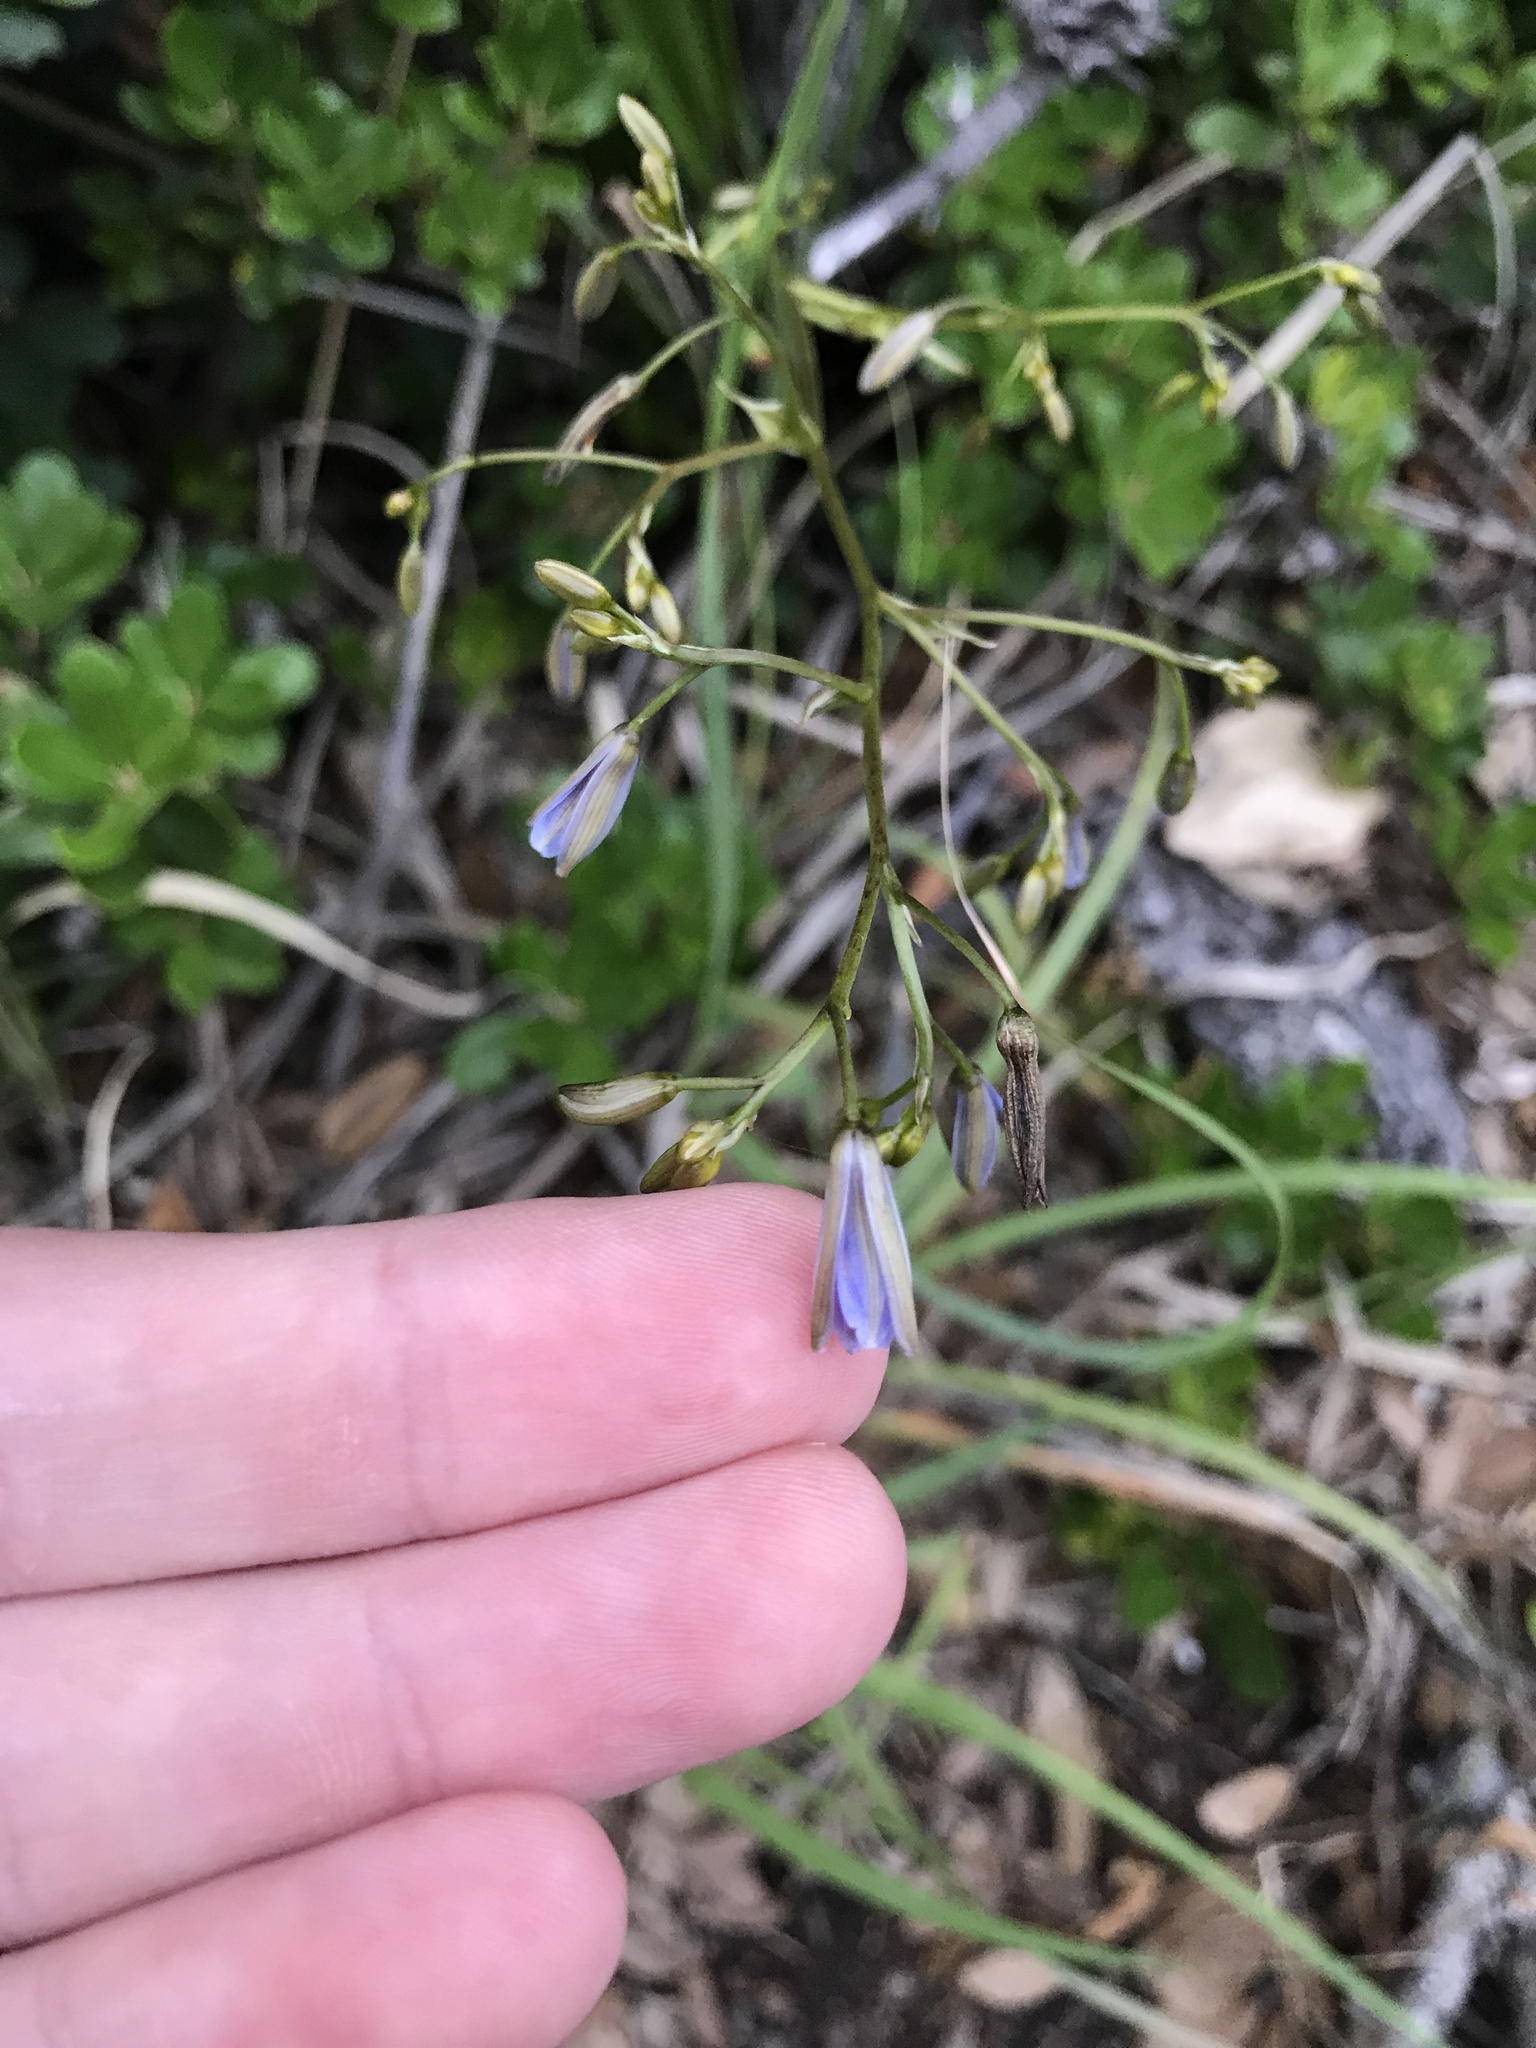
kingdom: Plantae
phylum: Tracheophyta
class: Liliopsida
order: Asparagales
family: Asphodelaceae
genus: Dianella
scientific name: Dianella ensifolia
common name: New zealand lilyplant
